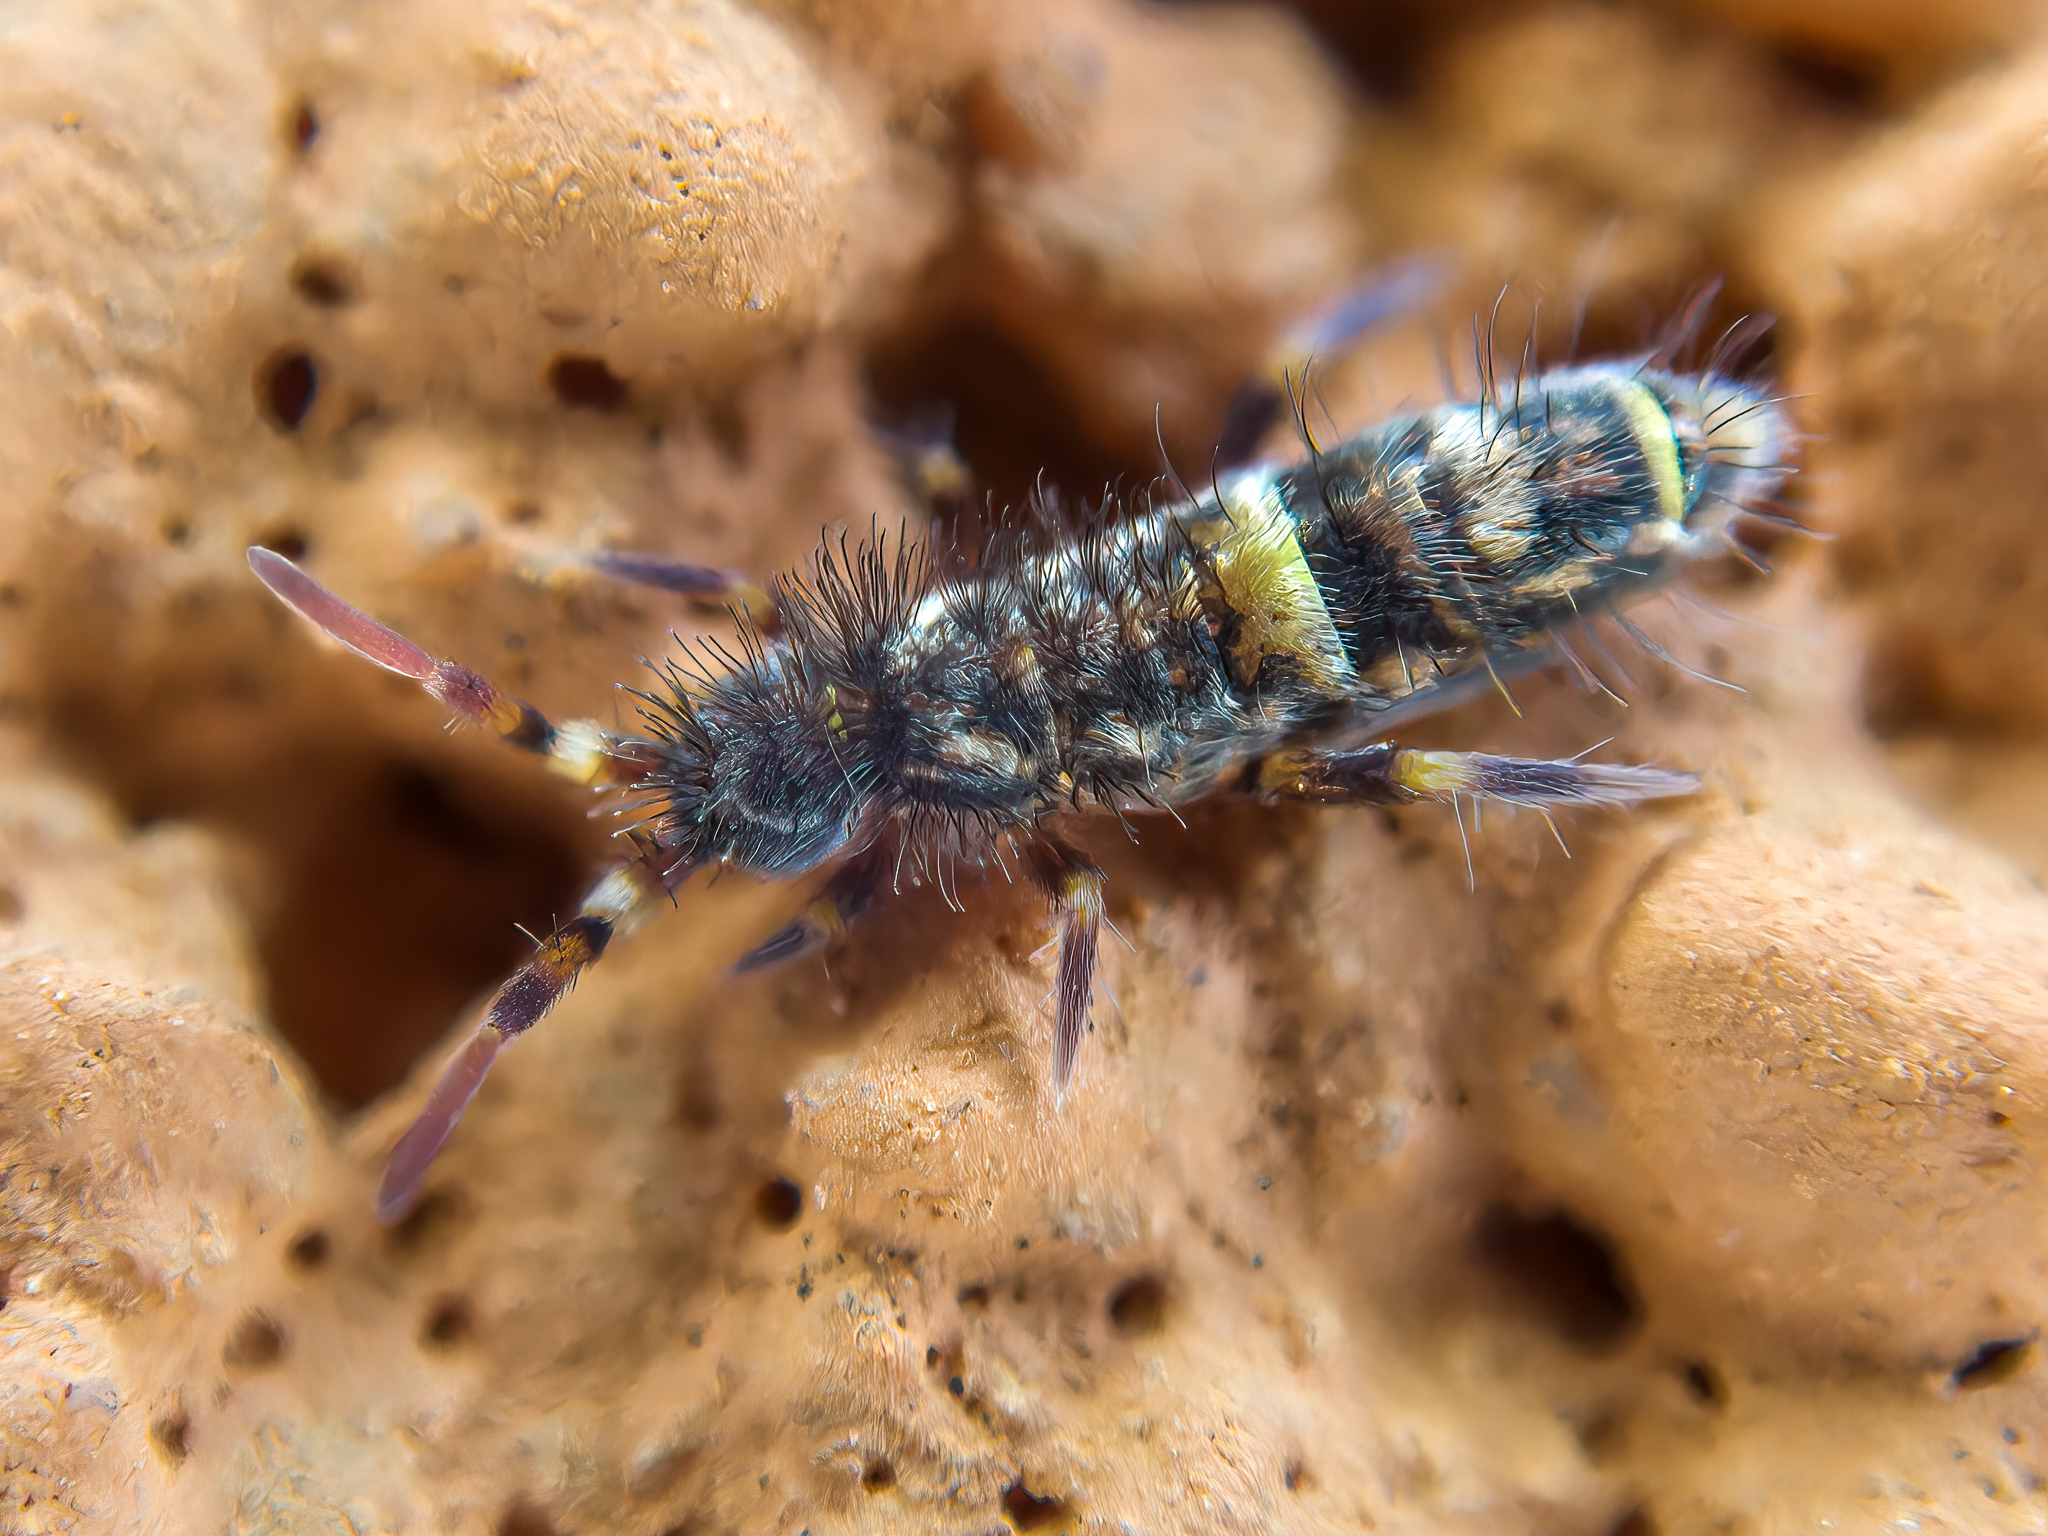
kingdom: Animalia
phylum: Arthropoda
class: Collembola
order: Entomobryomorpha
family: Orchesellidae
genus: Orchesella
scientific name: Orchesella cincta
